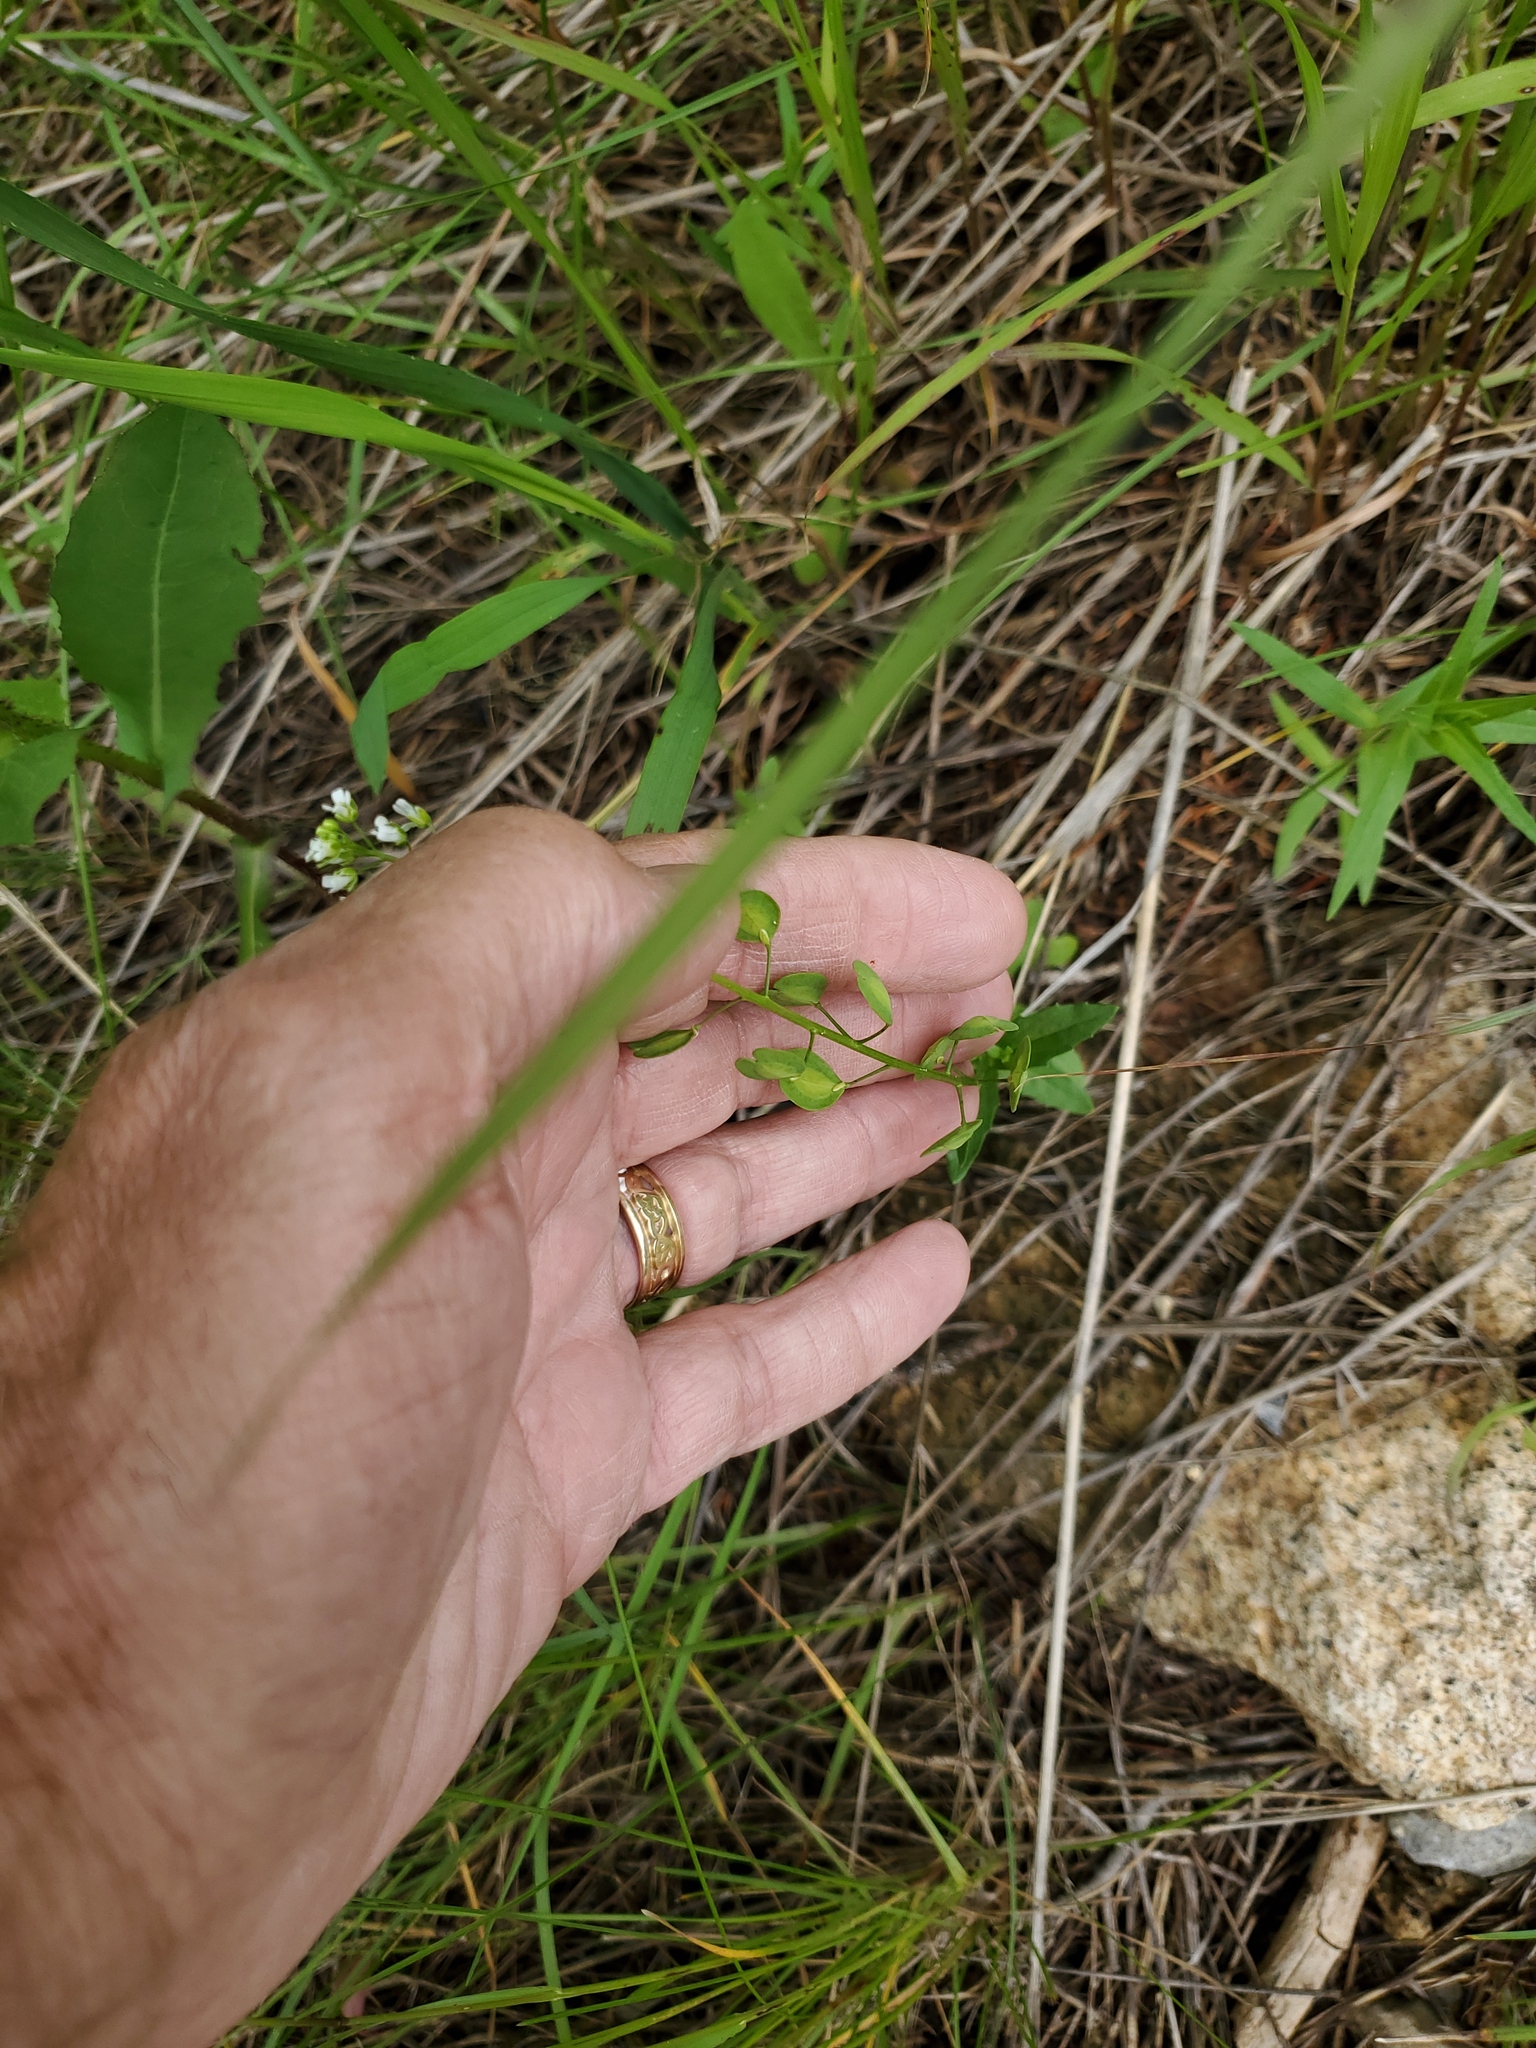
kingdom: Plantae
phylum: Tracheophyta
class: Magnoliopsida
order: Brassicales
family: Brassicaceae
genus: Thlaspi
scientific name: Thlaspi arvense
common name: Field pennycress
